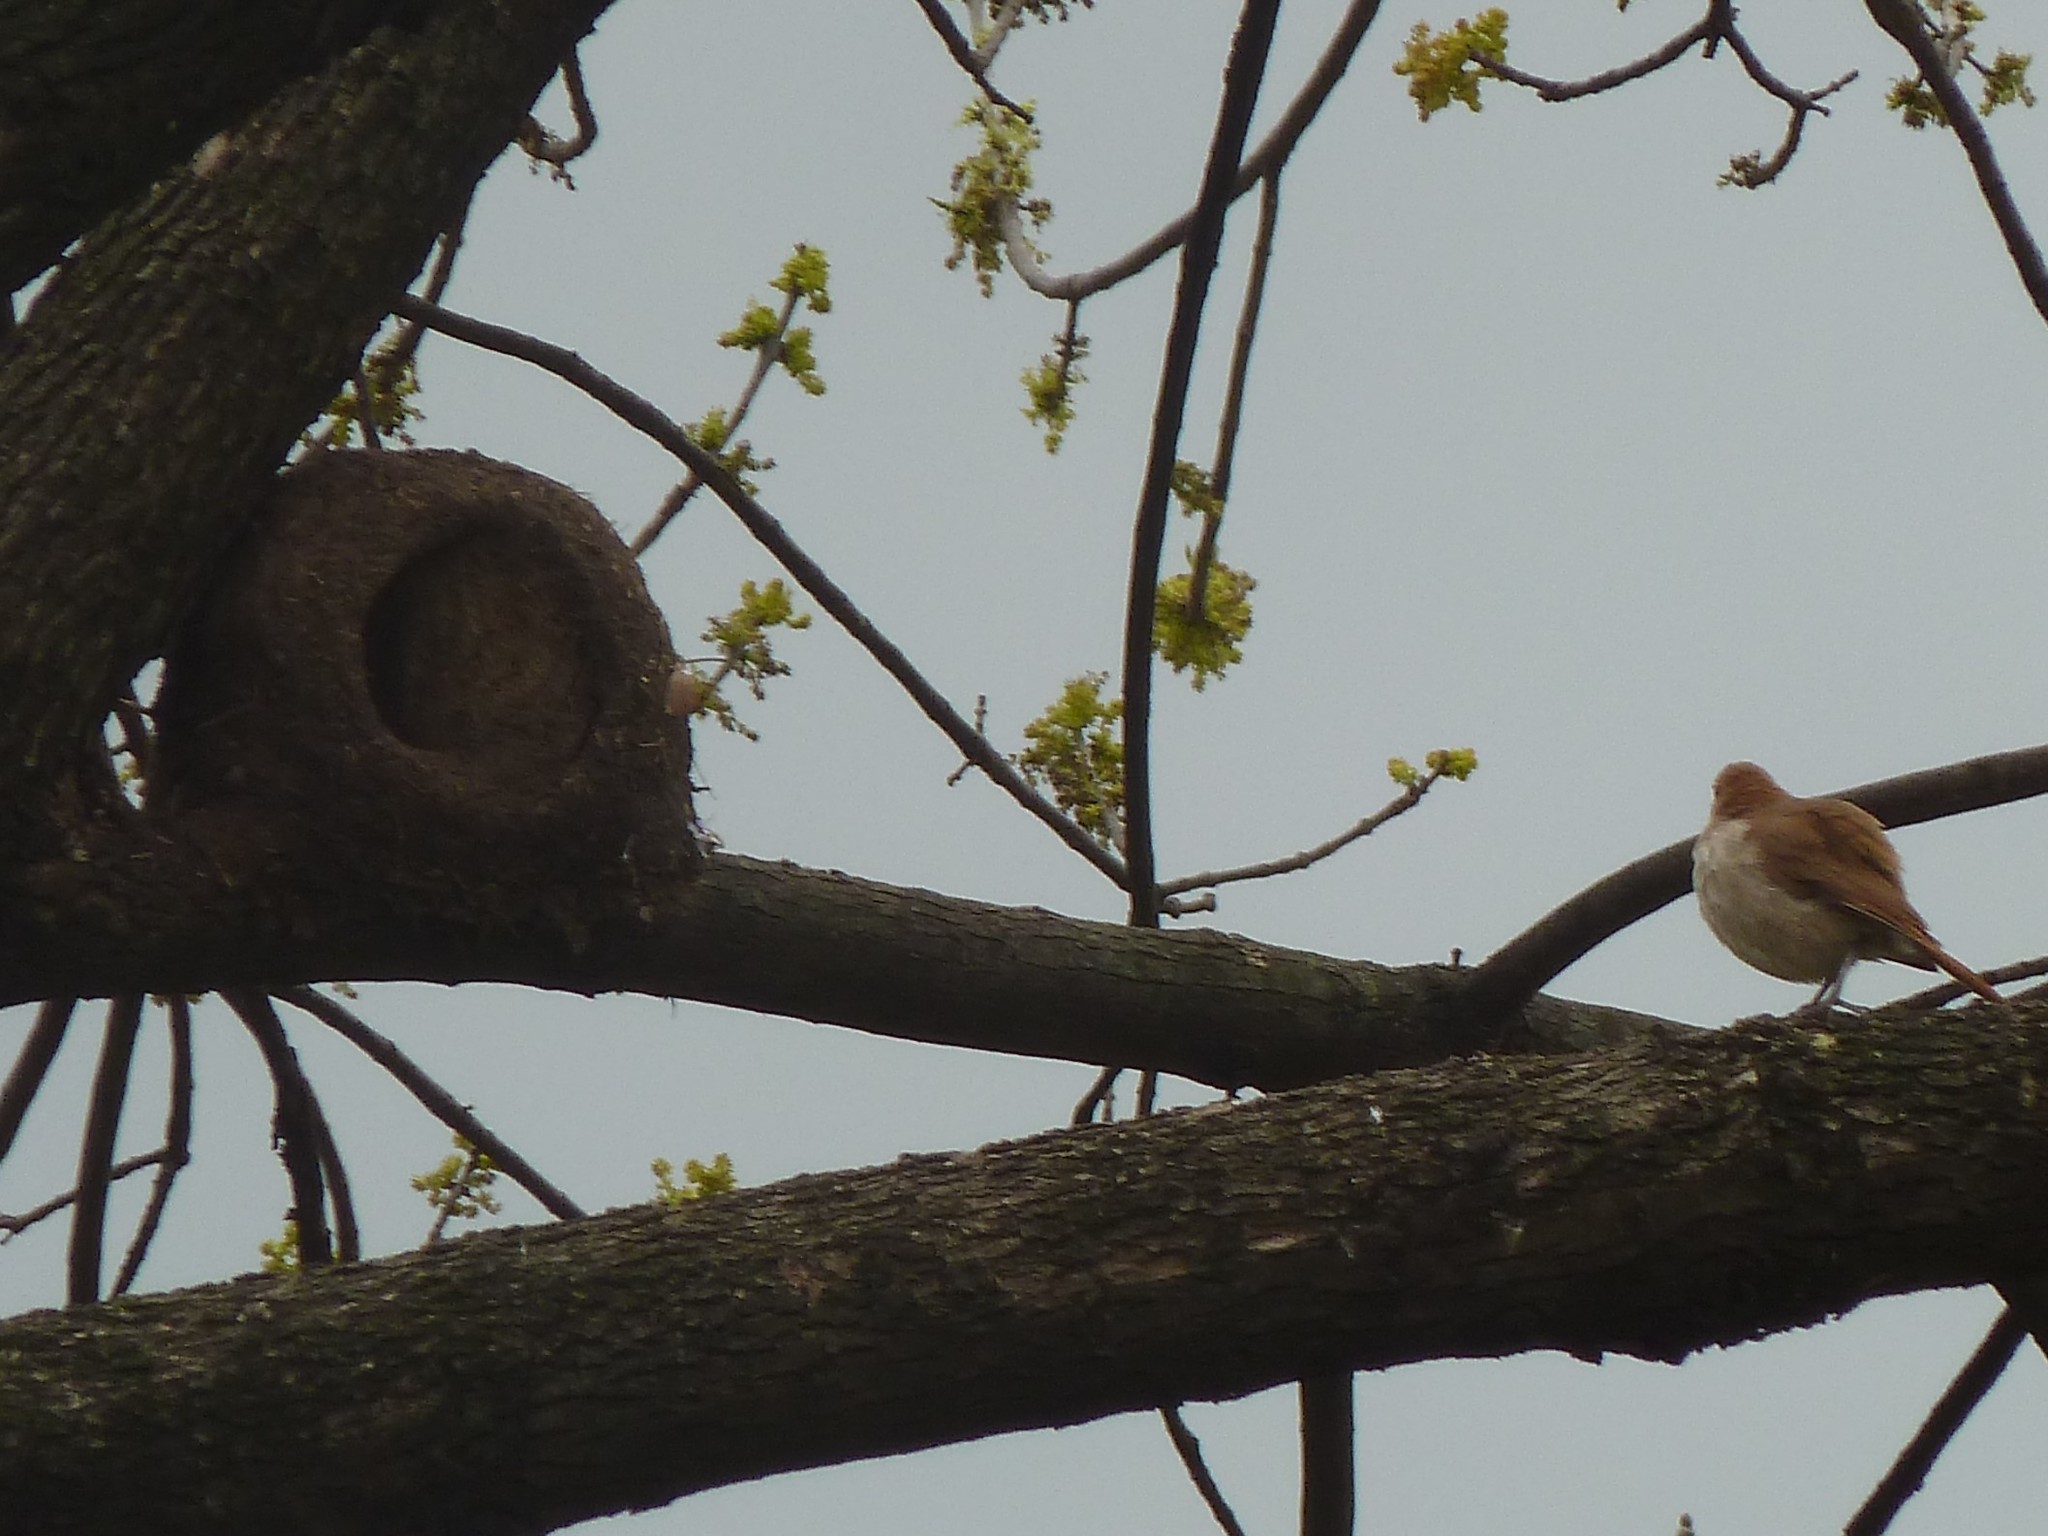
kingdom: Animalia
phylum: Chordata
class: Aves
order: Passeriformes
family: Furnariidae
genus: Furnarius
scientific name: Furnarius rufus
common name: Rufous hornero
